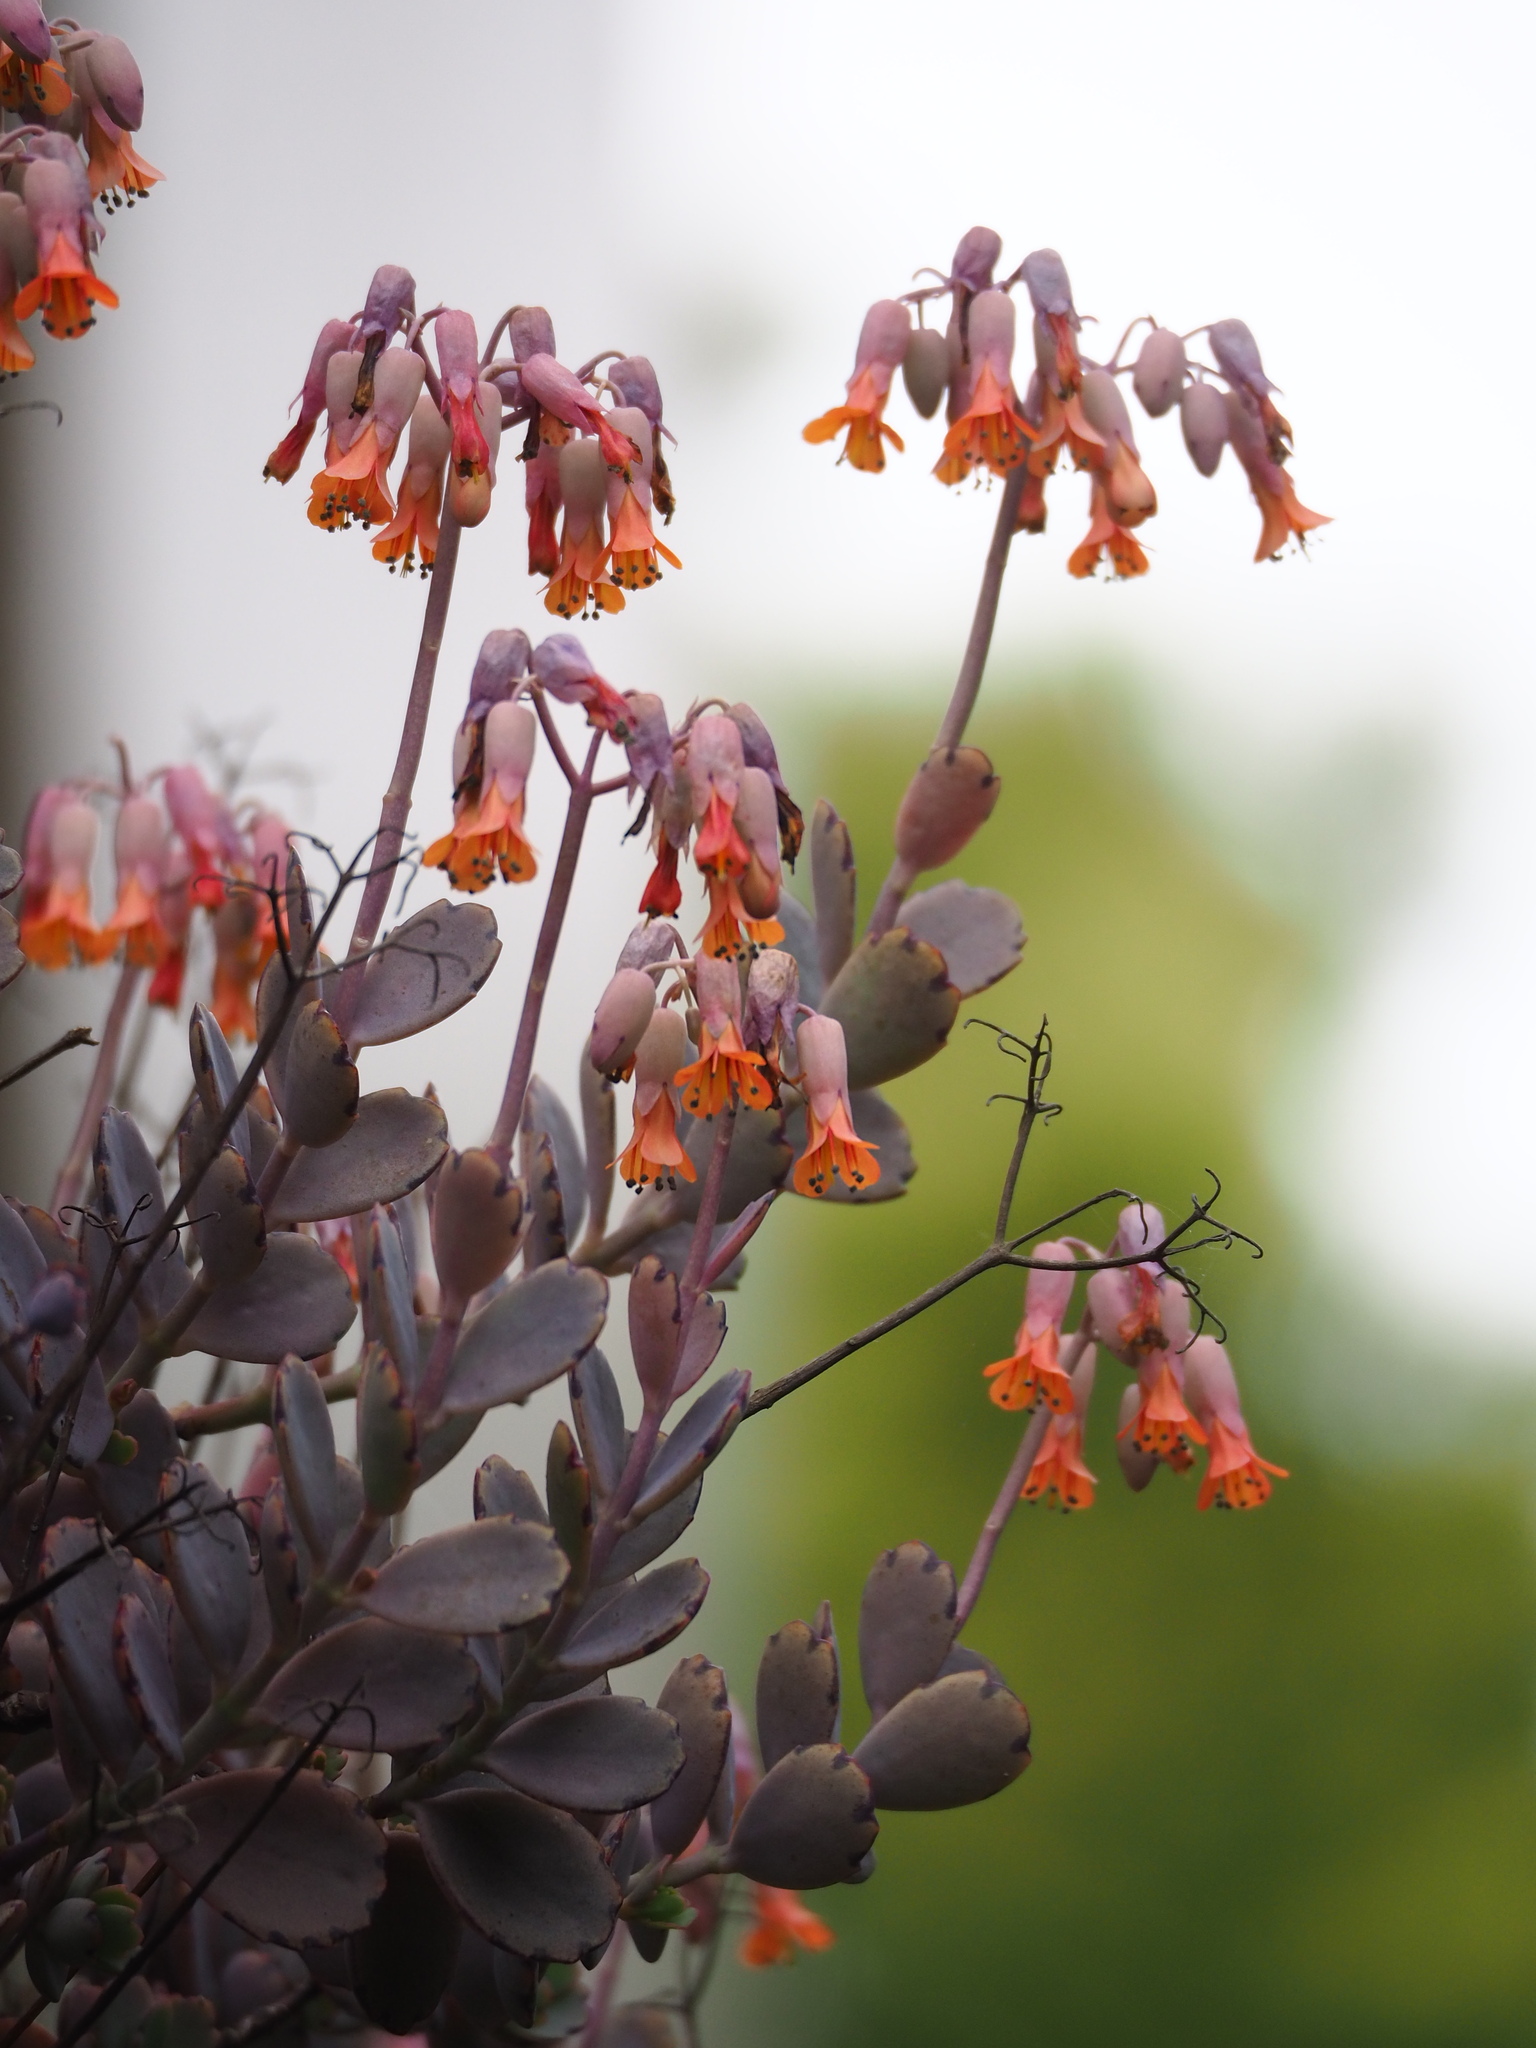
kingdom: Plantae
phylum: Tracheophyta
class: Magnoliopsida
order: Saxifragales
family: Crassulaceae
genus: Kalanchoe
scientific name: Kalanchoe fedtschenkoi
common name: Lavender scallops
